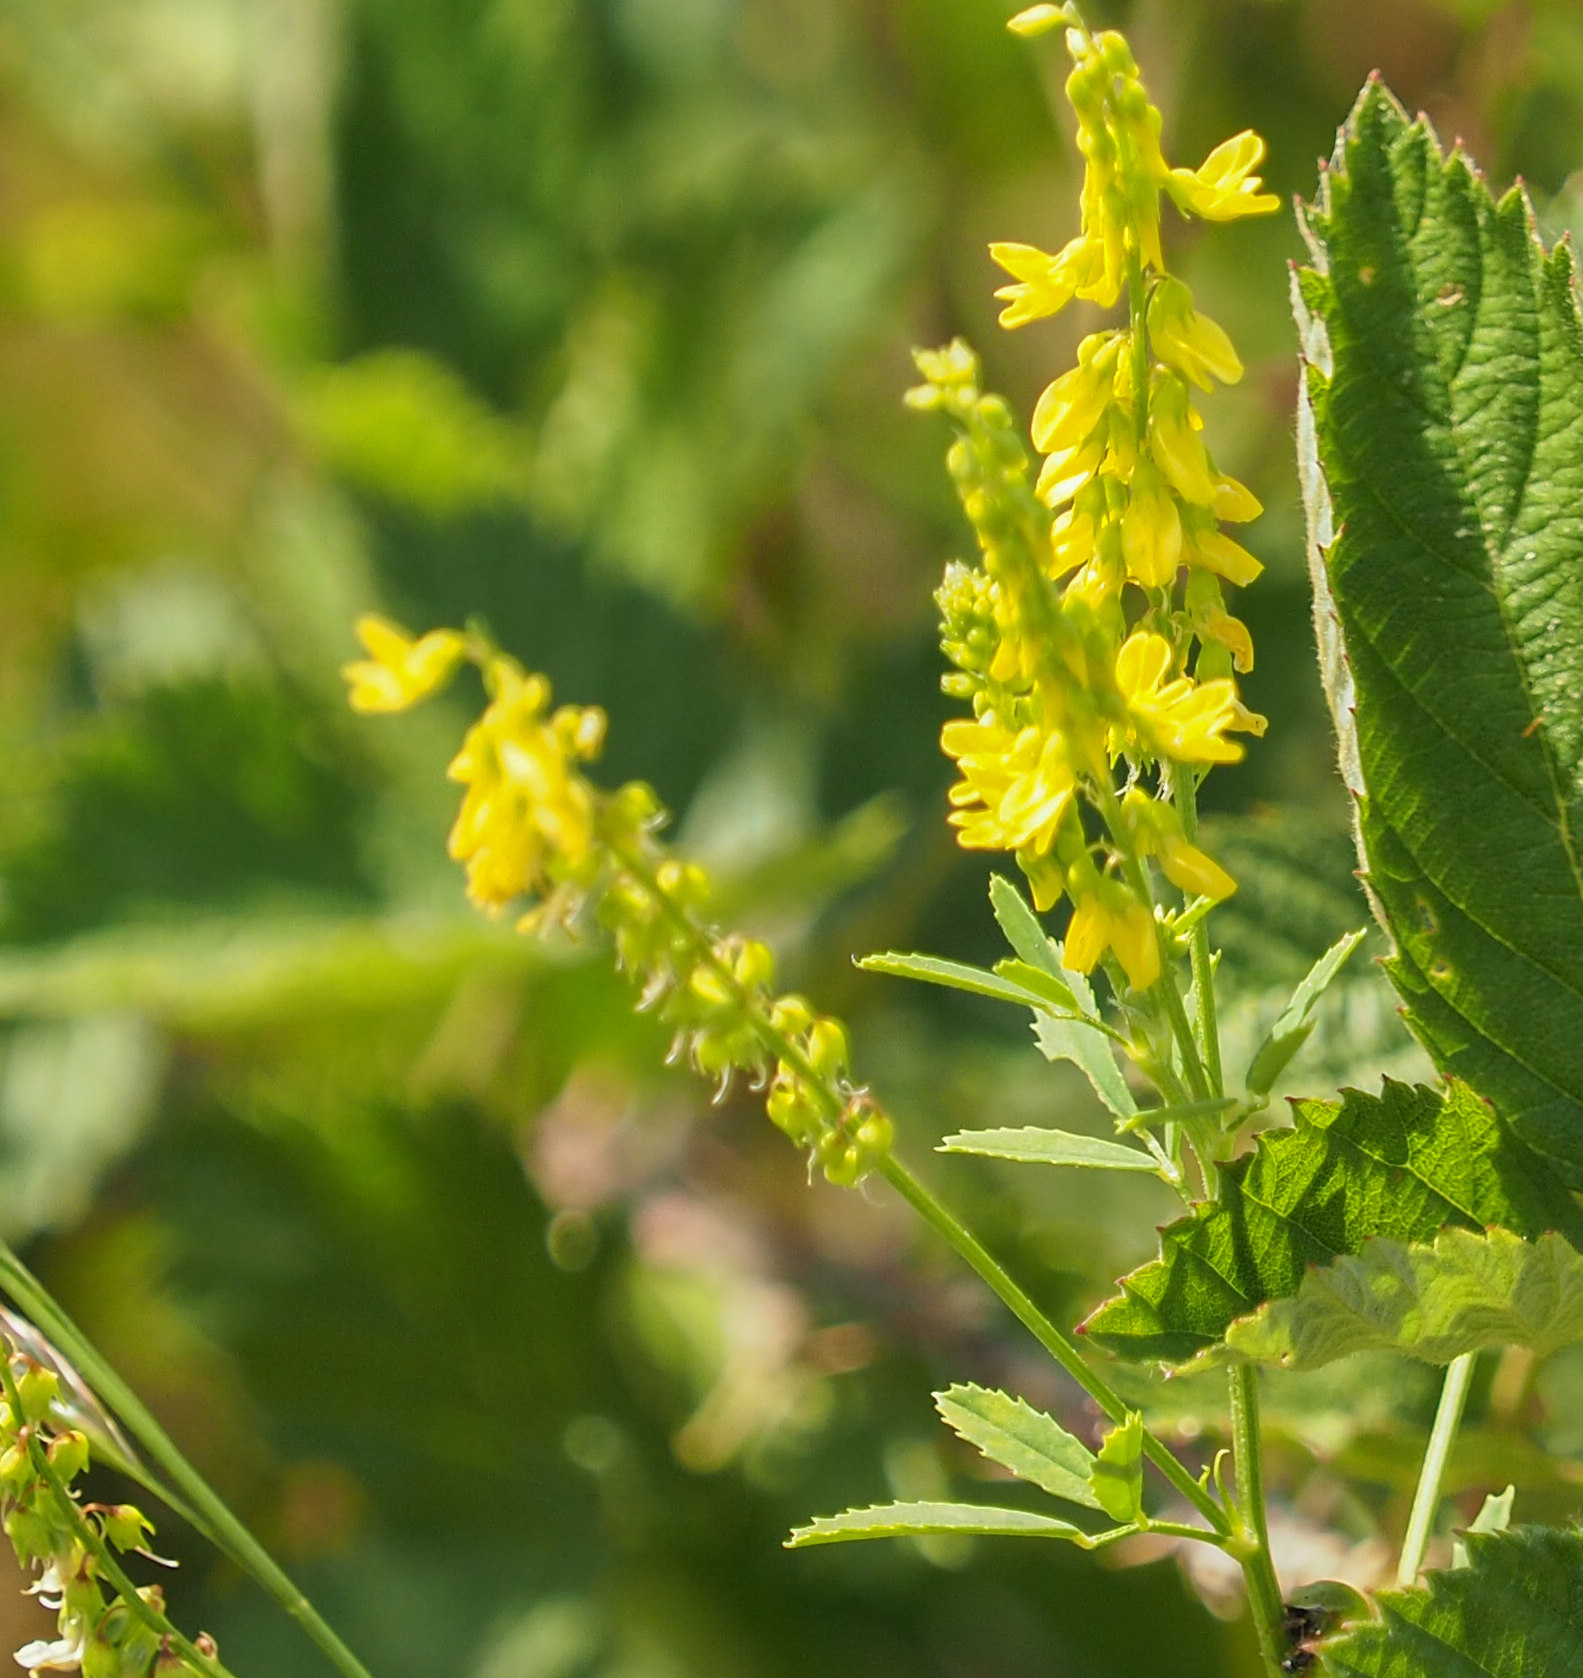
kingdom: Plantae
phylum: Tracheophyta
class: Magnoliopsida
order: Fabales
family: Fabaceae
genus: Melilotus
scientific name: Melilotus officinalis
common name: Sweetclover
